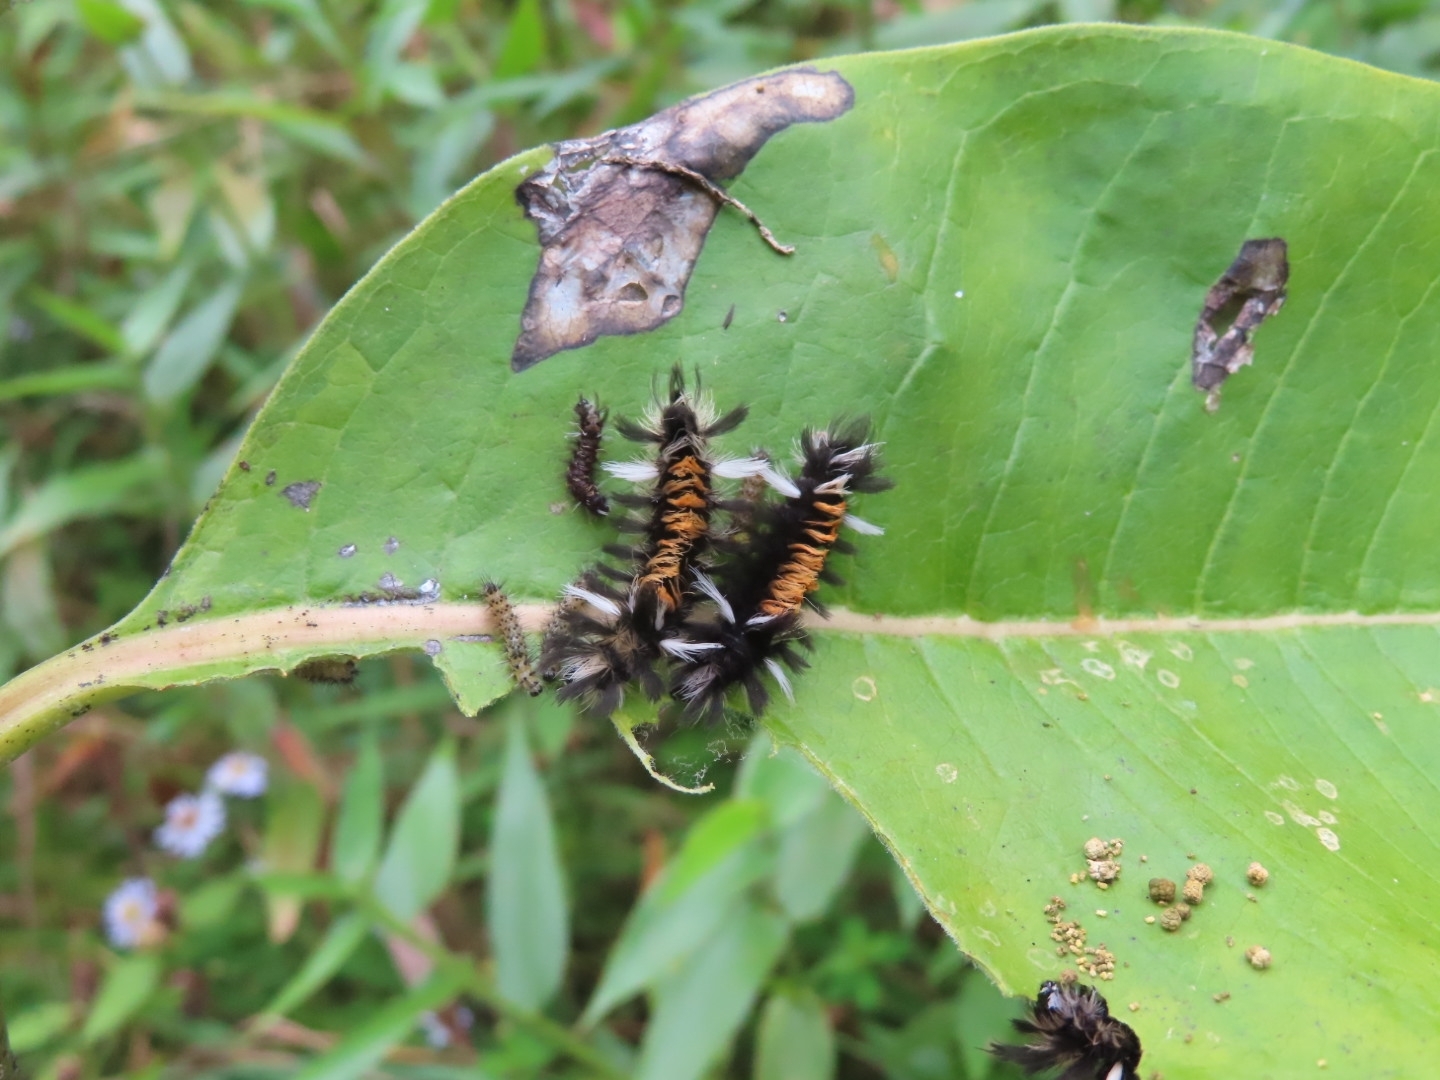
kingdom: Animalia
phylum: Arthropoda
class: Insecta
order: Lepidoptera
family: Erebidae
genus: Euchaetes
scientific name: Euchaetes egle
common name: Milkweed tussock moth
